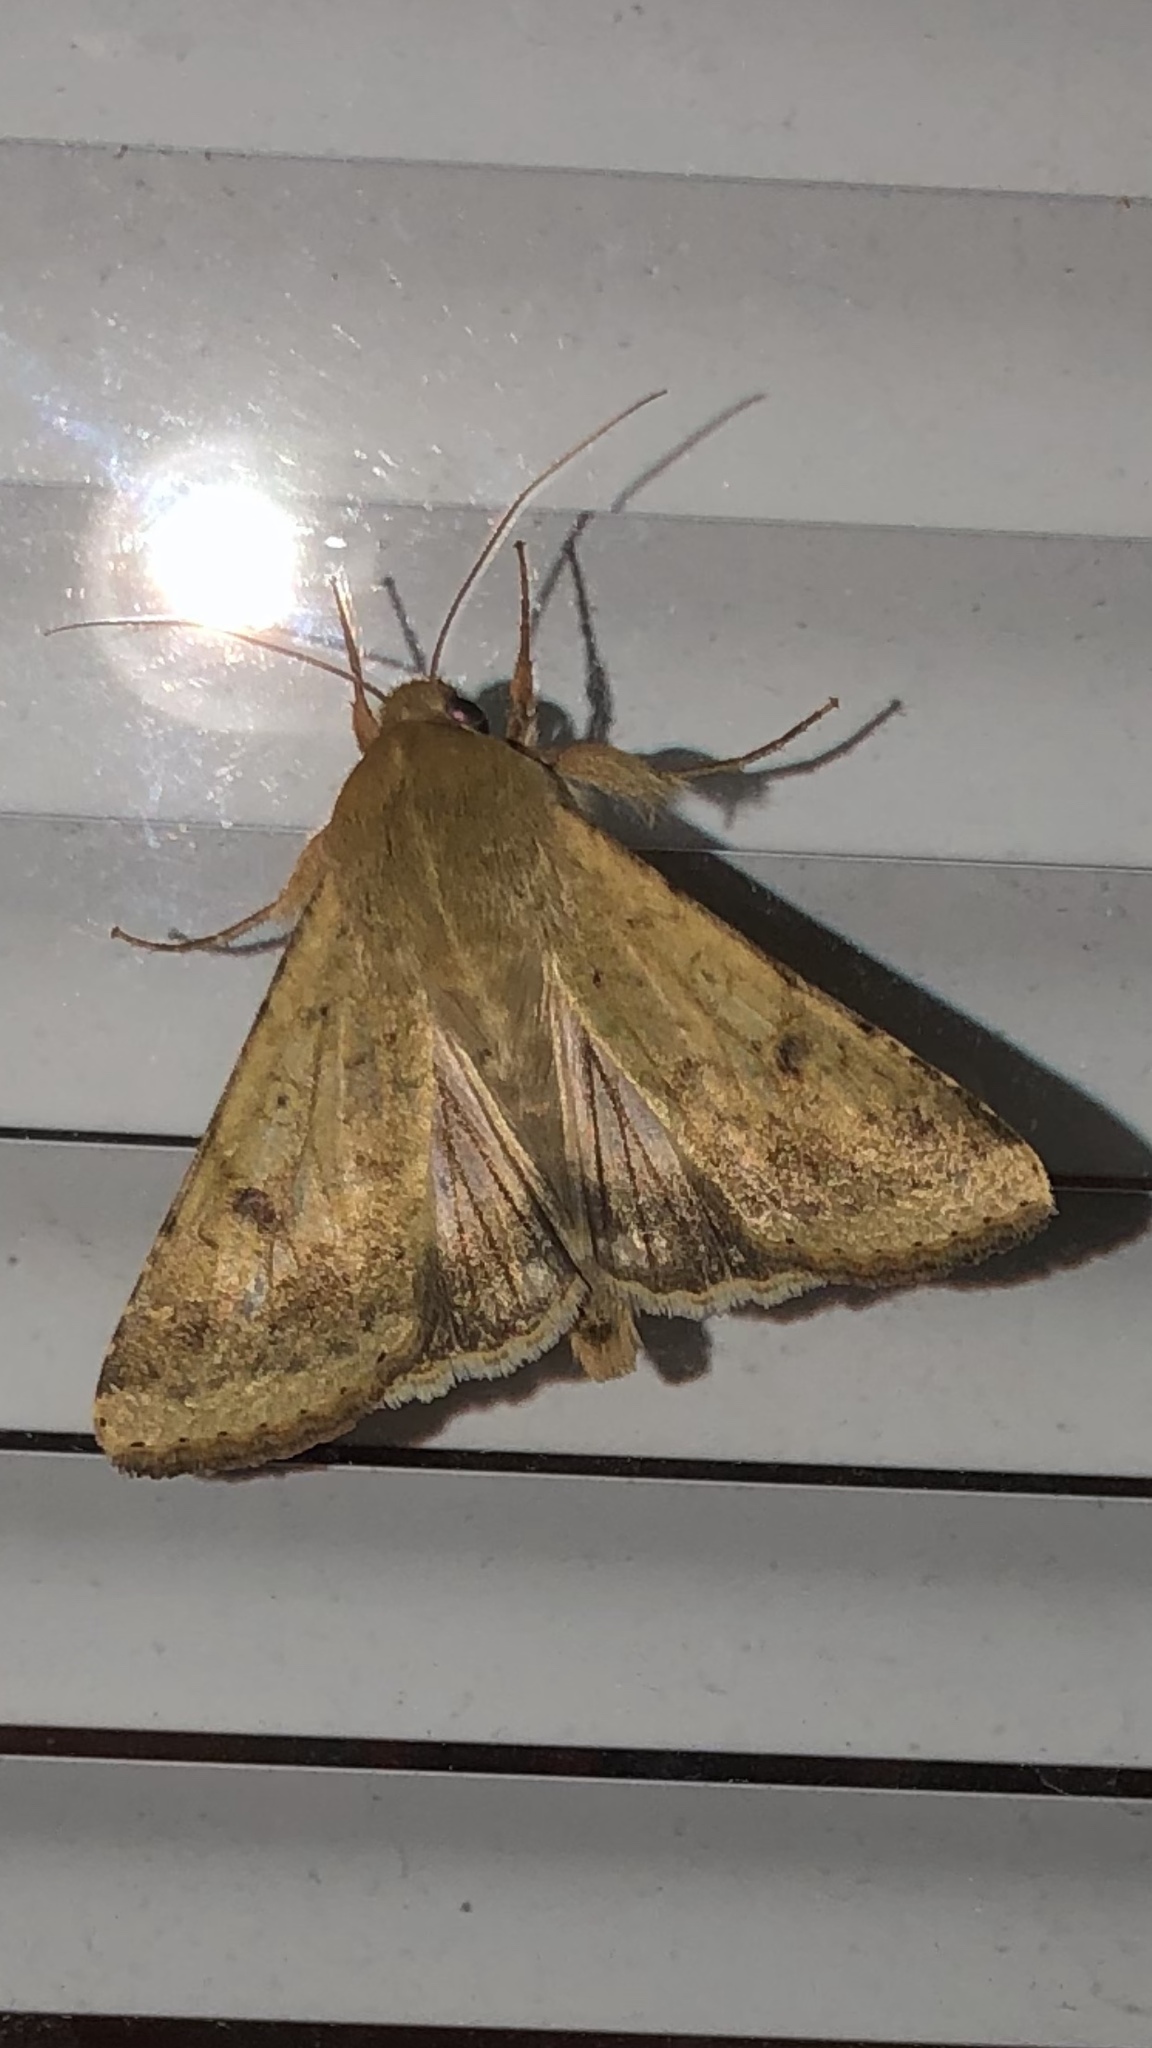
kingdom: Animalia
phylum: Arthropoda
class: Insecta
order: Lepidoptera
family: Noctuidae
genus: Helicoverpa
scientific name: Helicoverpa zea
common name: Bollworm
